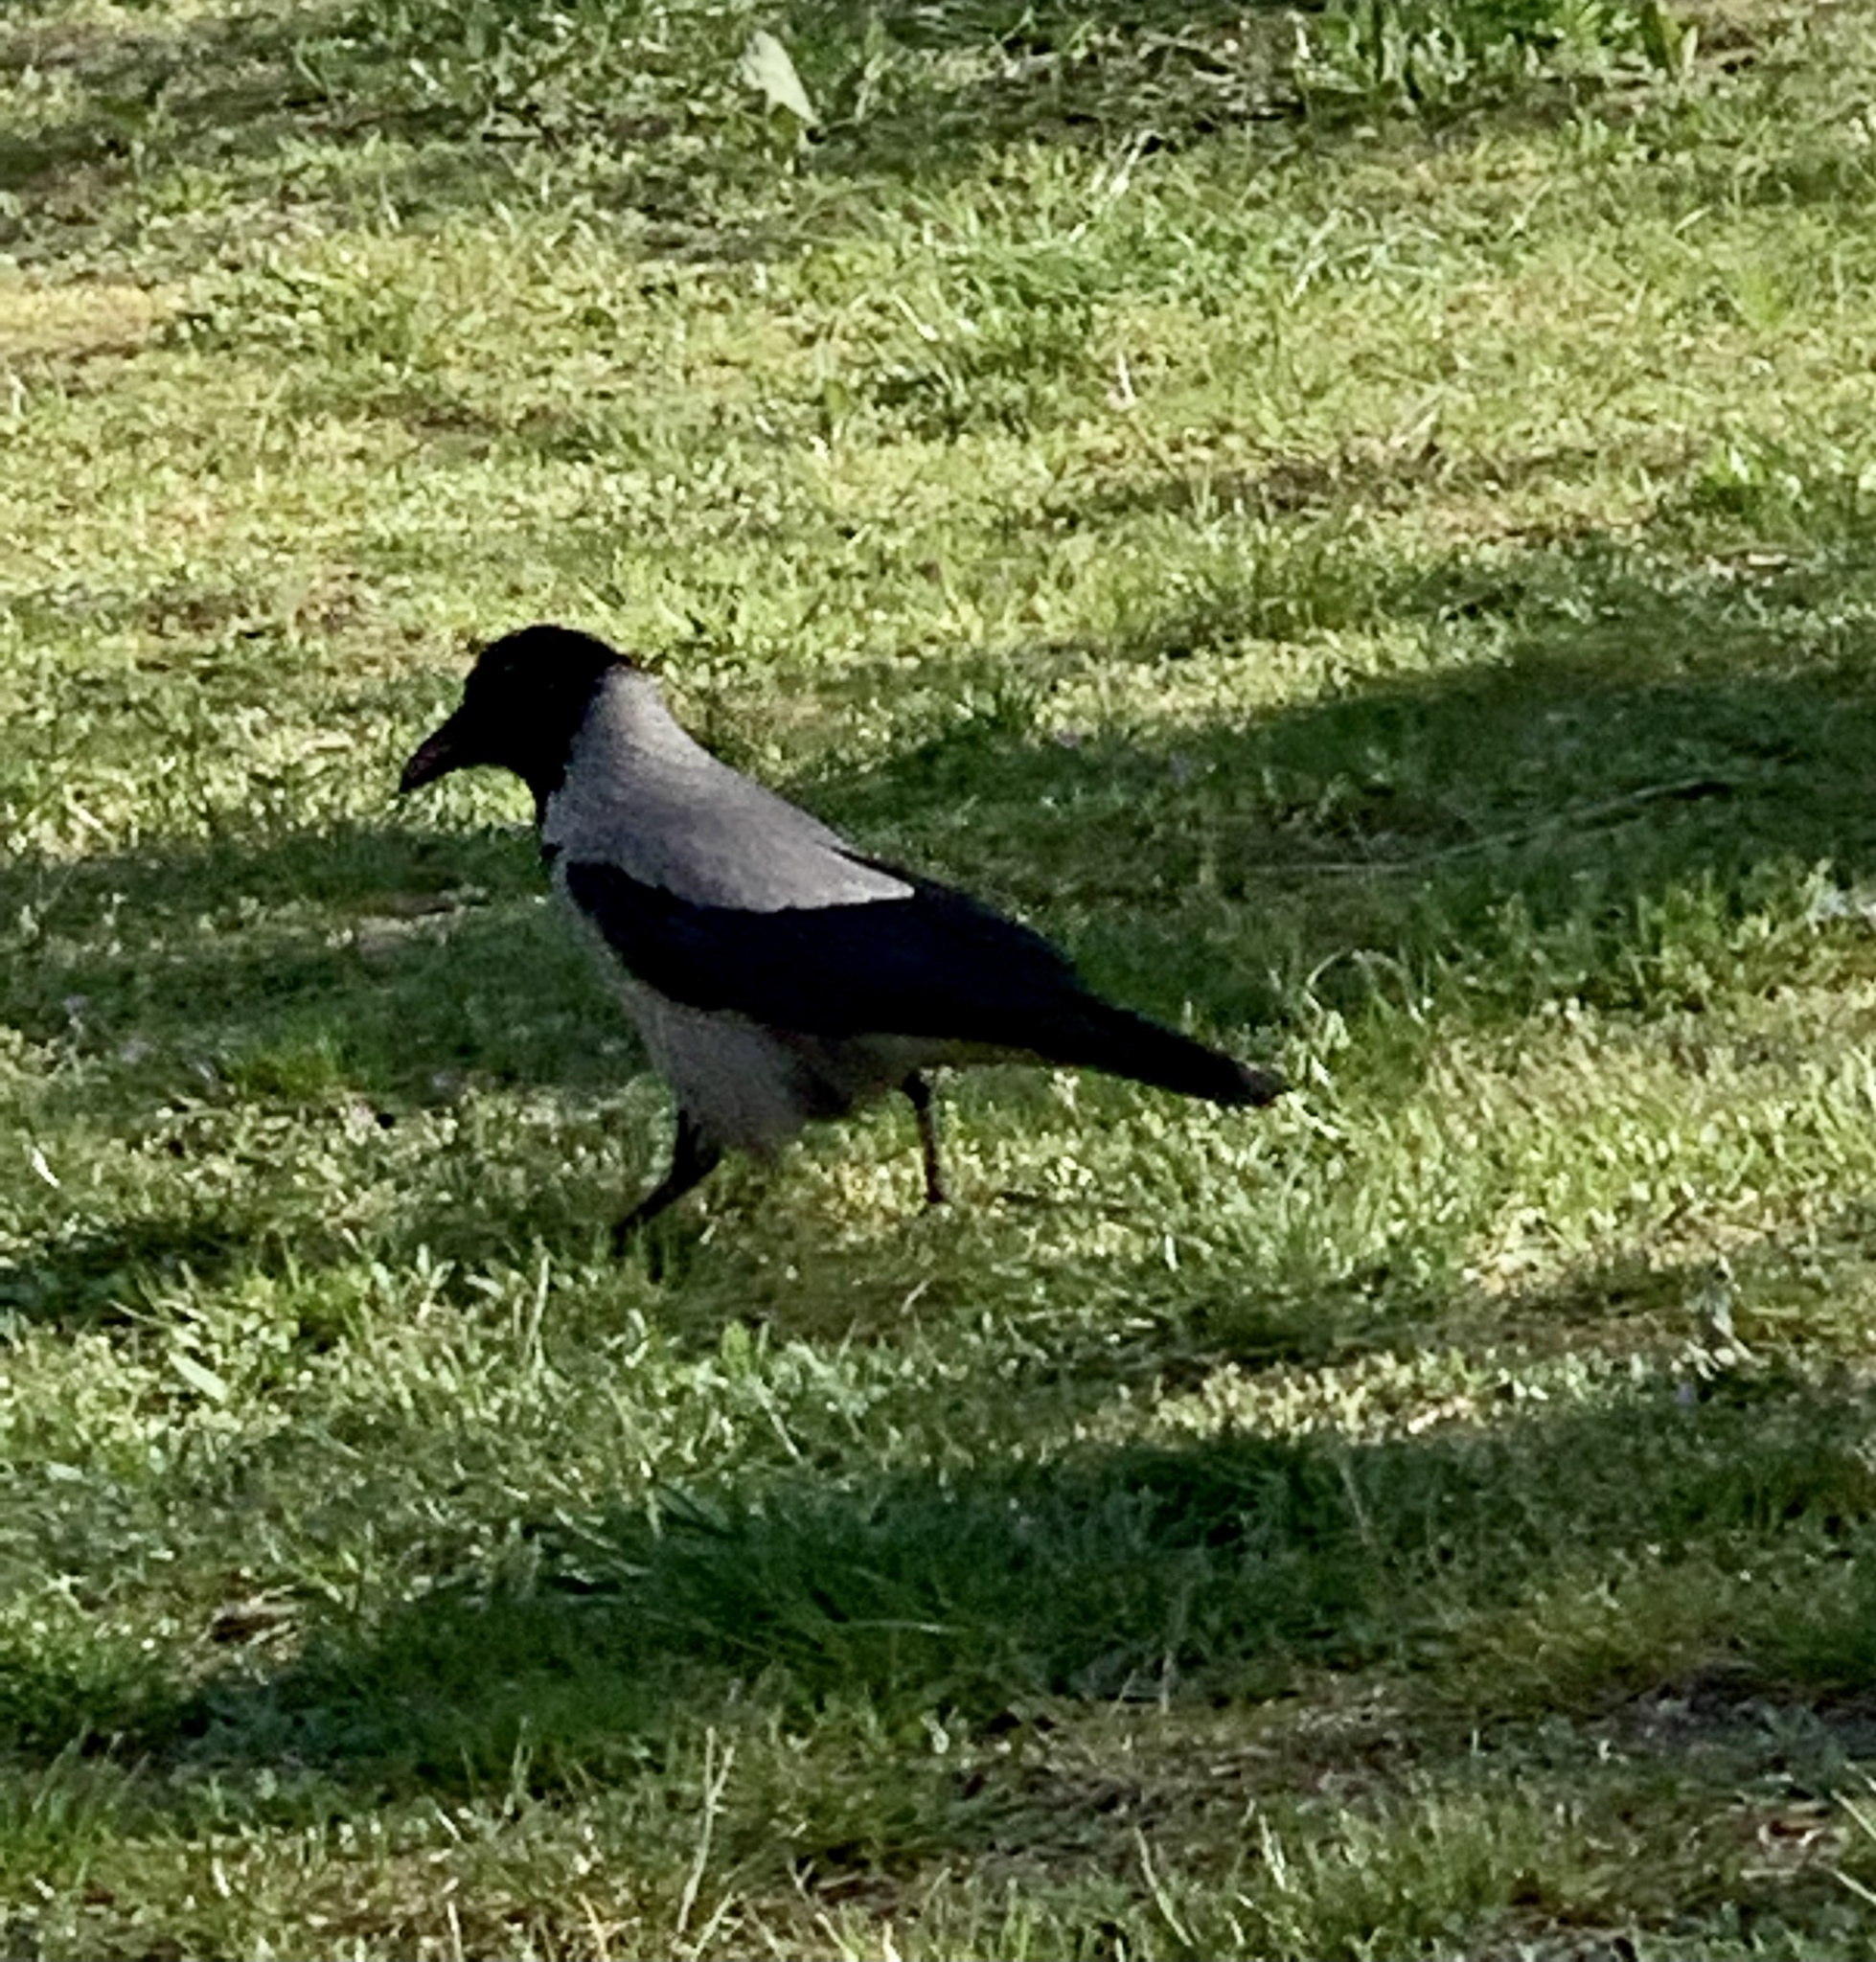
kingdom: Animalia
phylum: Chordata
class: Aves
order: Passeriformes
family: Corvidae
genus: Corvus
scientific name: Corvus cornix
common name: Hooded crow
